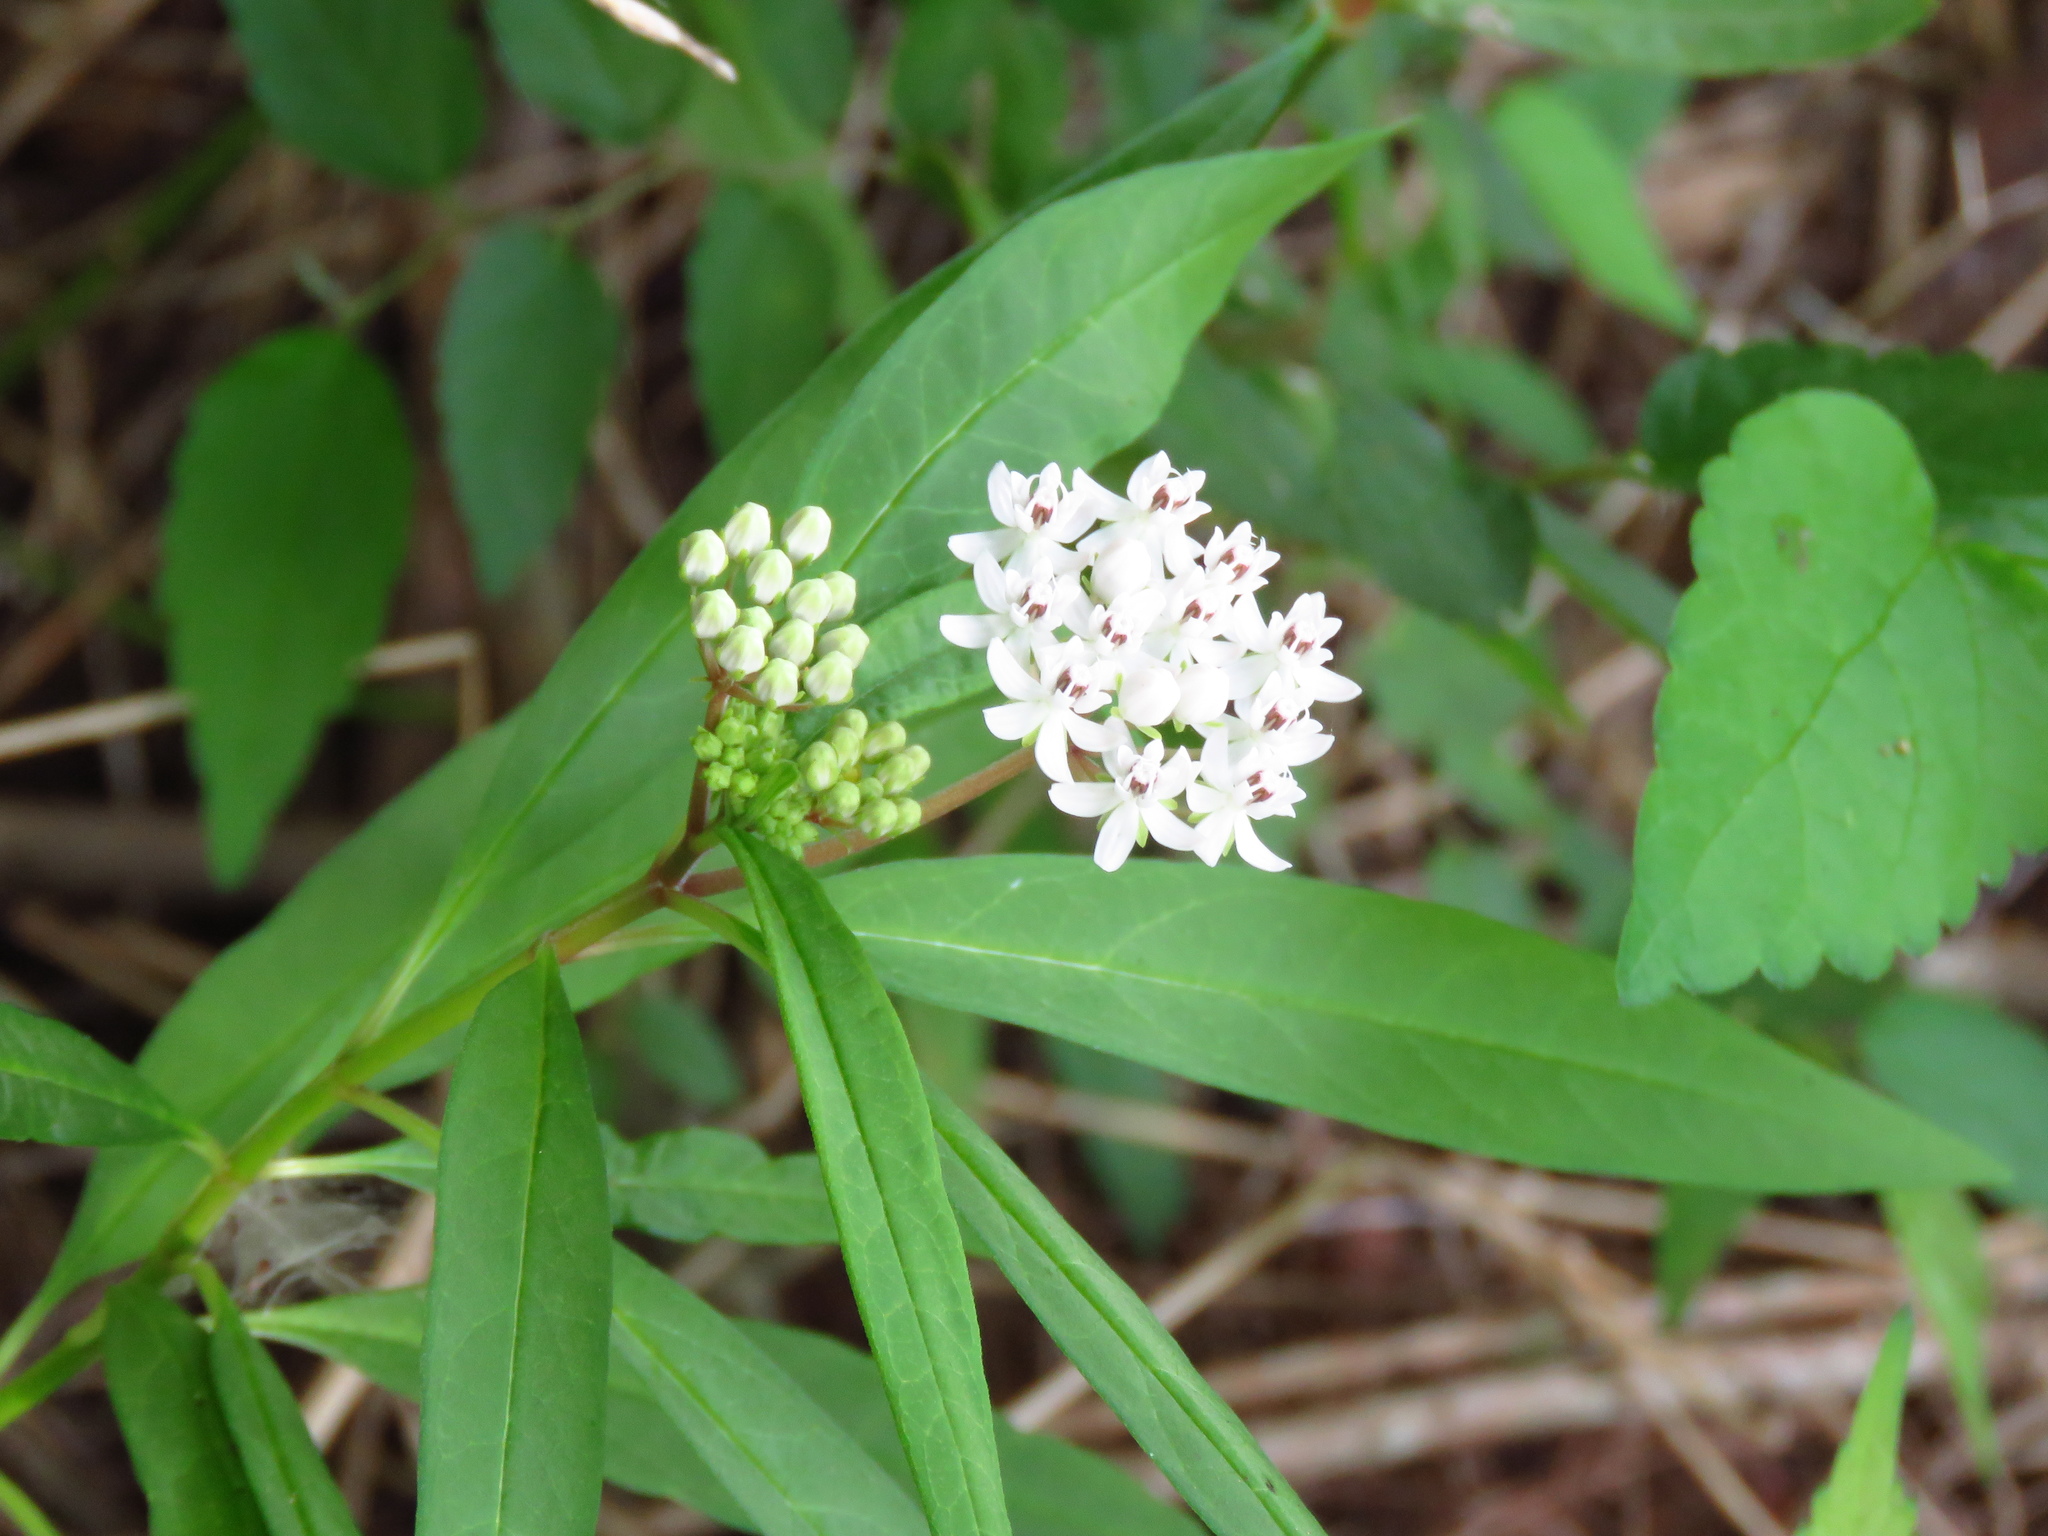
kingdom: Plantae
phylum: Tracheophyta
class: Magnoliopsida
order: Gentianales
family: Apocynaceae
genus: Asclepias
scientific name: Asclepias perennis
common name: Smooth-seed milkweed
